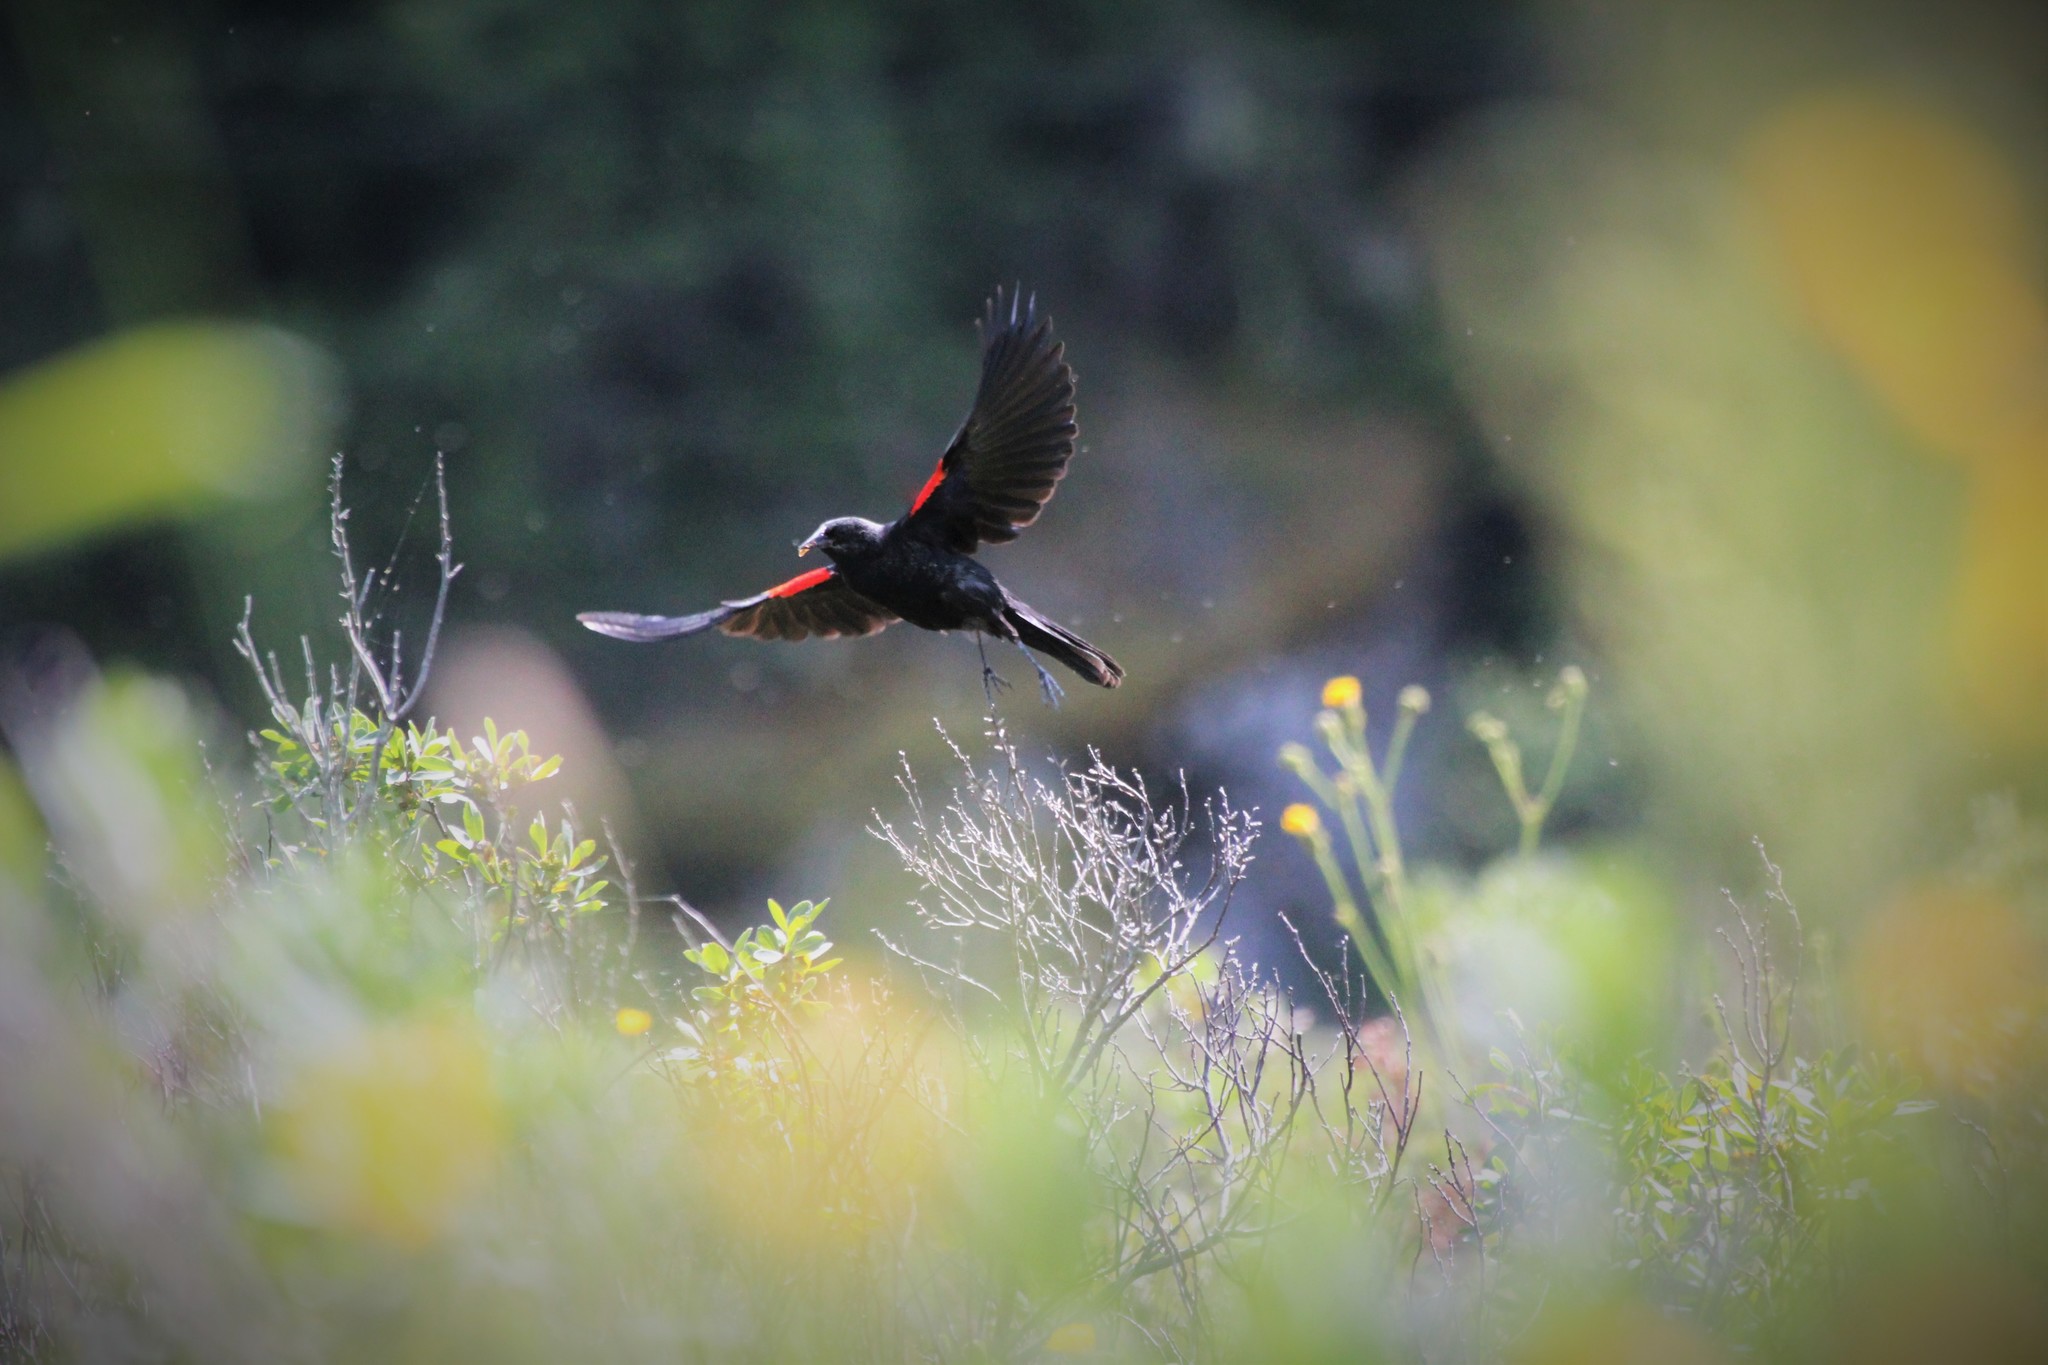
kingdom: Animalia
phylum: Chordata
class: Aves
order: Passeriformes
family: Icteridae
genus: Agelaius
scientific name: Agelaius phoeniceus
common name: Red-winged blackbird
